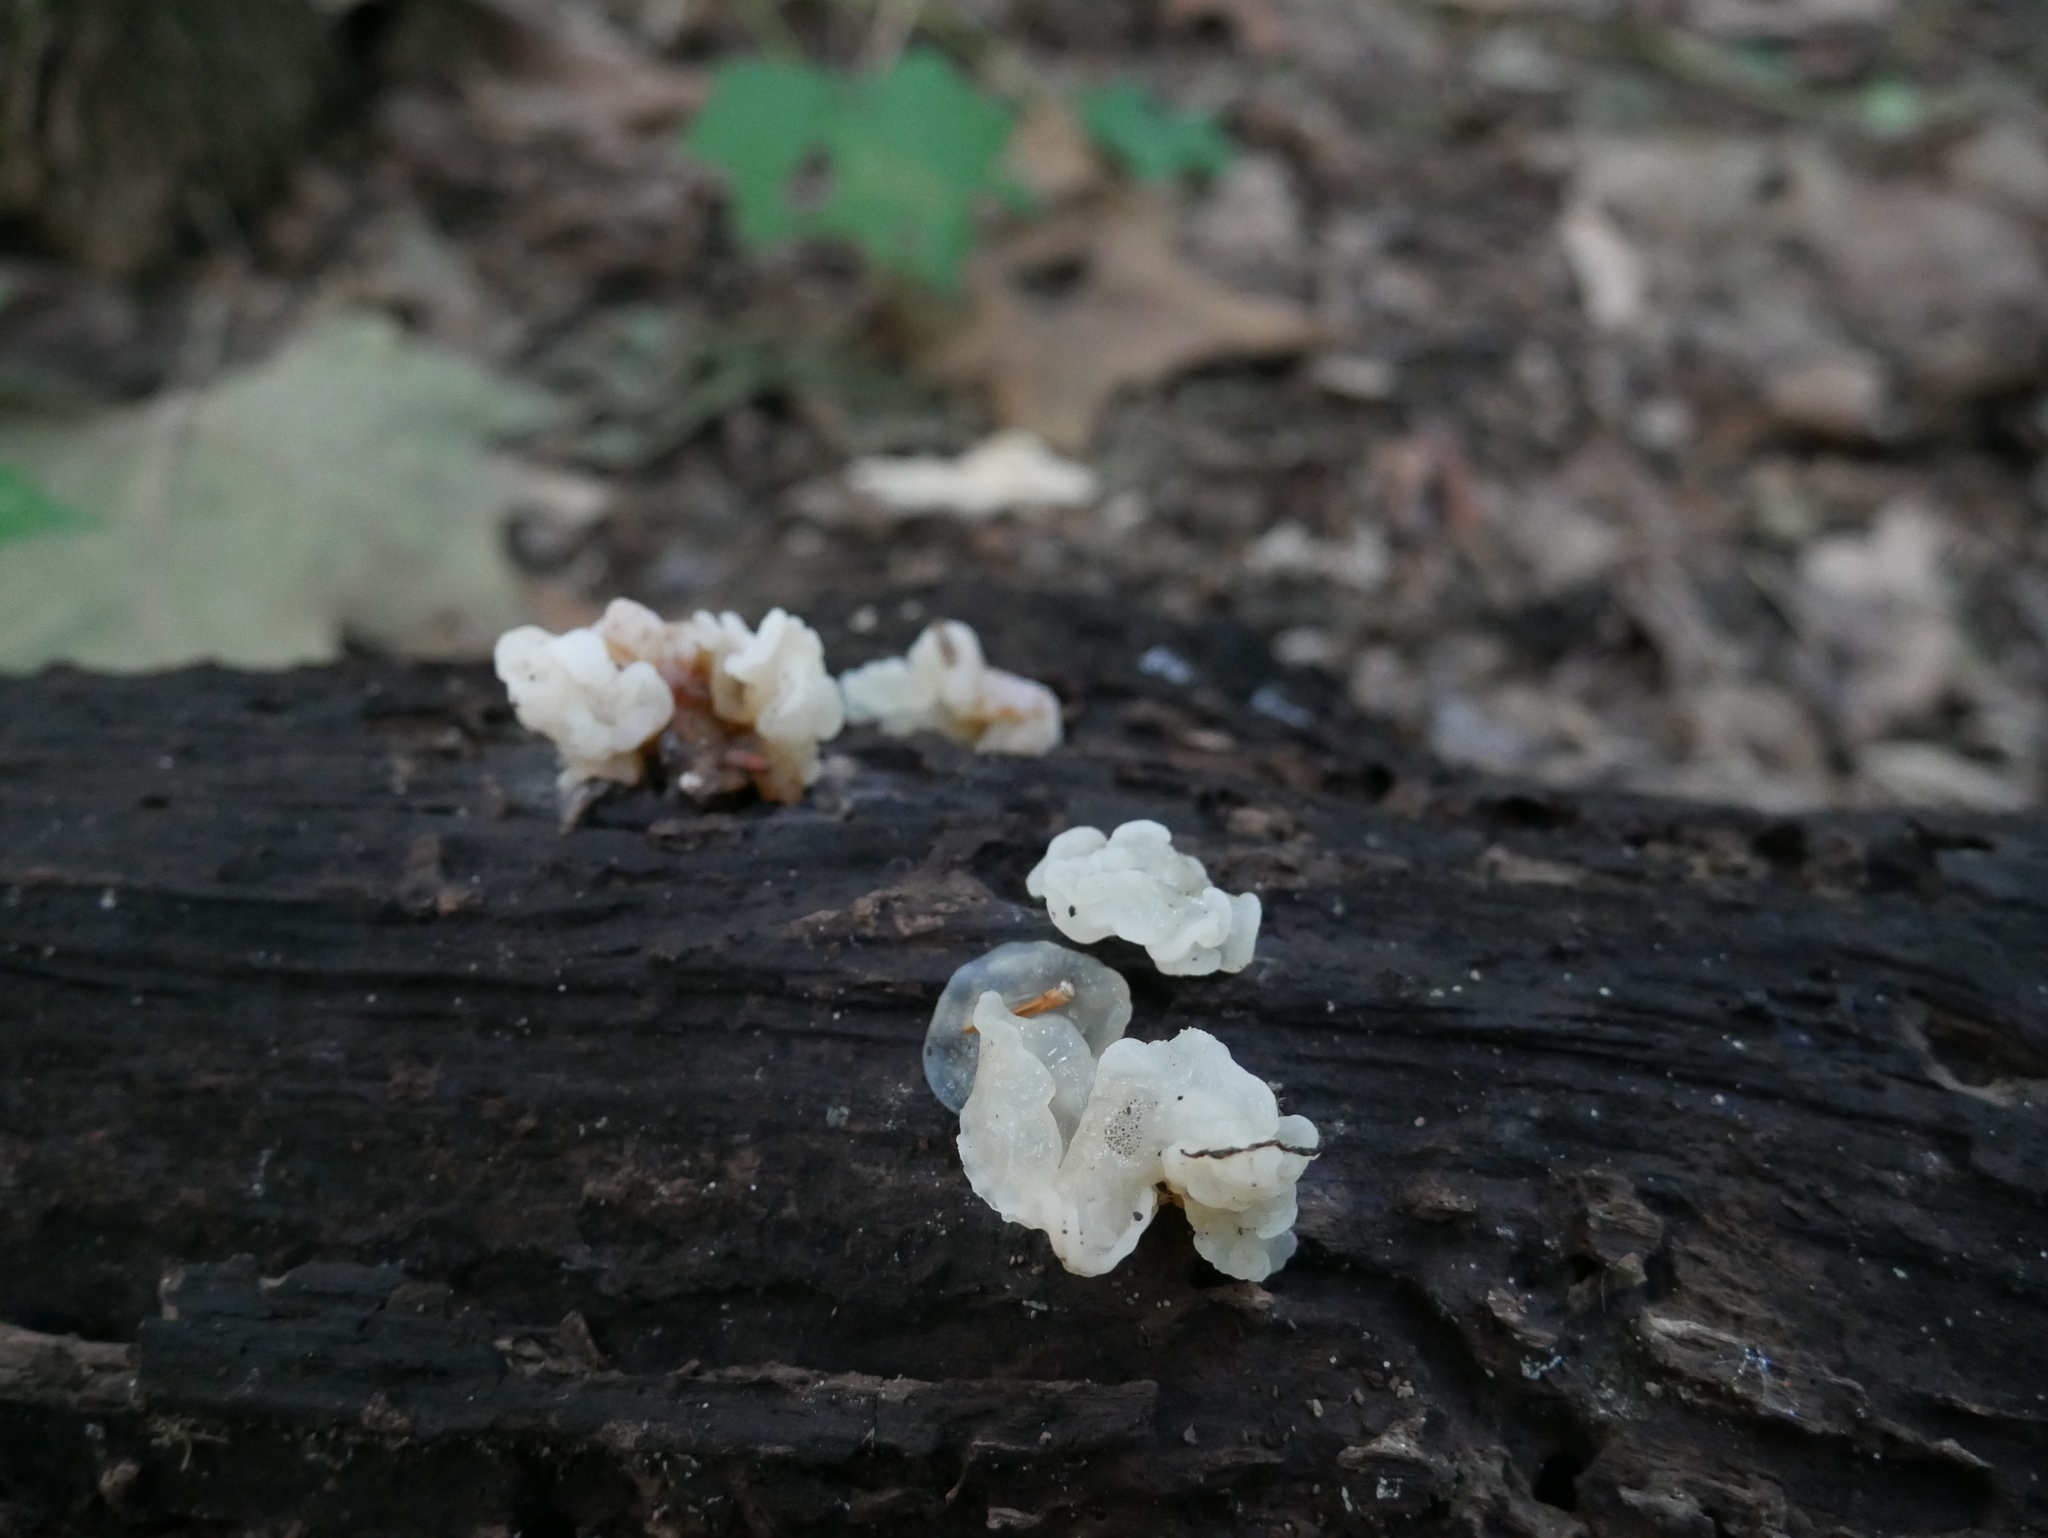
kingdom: Fungi
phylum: Basidiomycota
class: Agaricomycetes
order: Auriculariales
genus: Ductifera
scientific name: Ductifera pululahuana
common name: White jelly fungus
